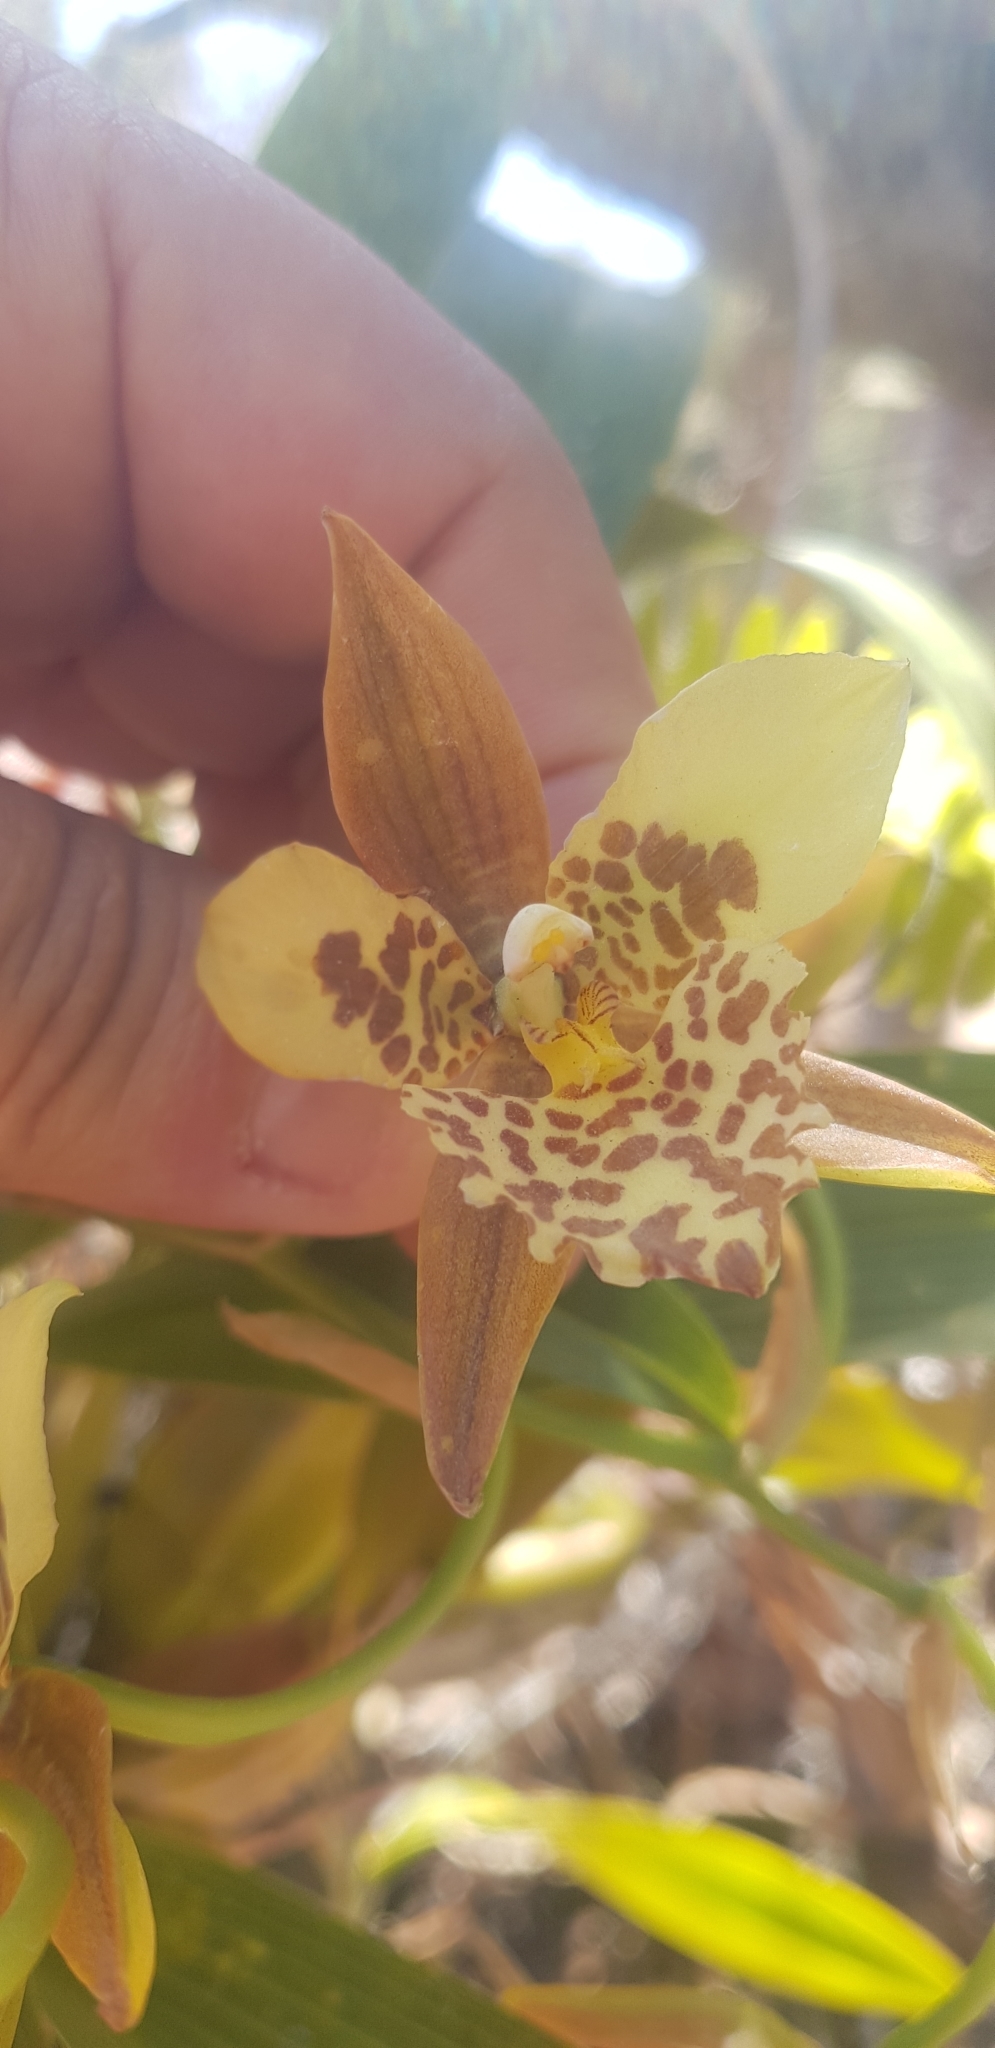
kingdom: Plantae
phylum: Tracheophyta
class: Liliopsida
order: Asparagales
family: Orchidaceae
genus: Rhynchostele
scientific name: Rhynchostele maculata
